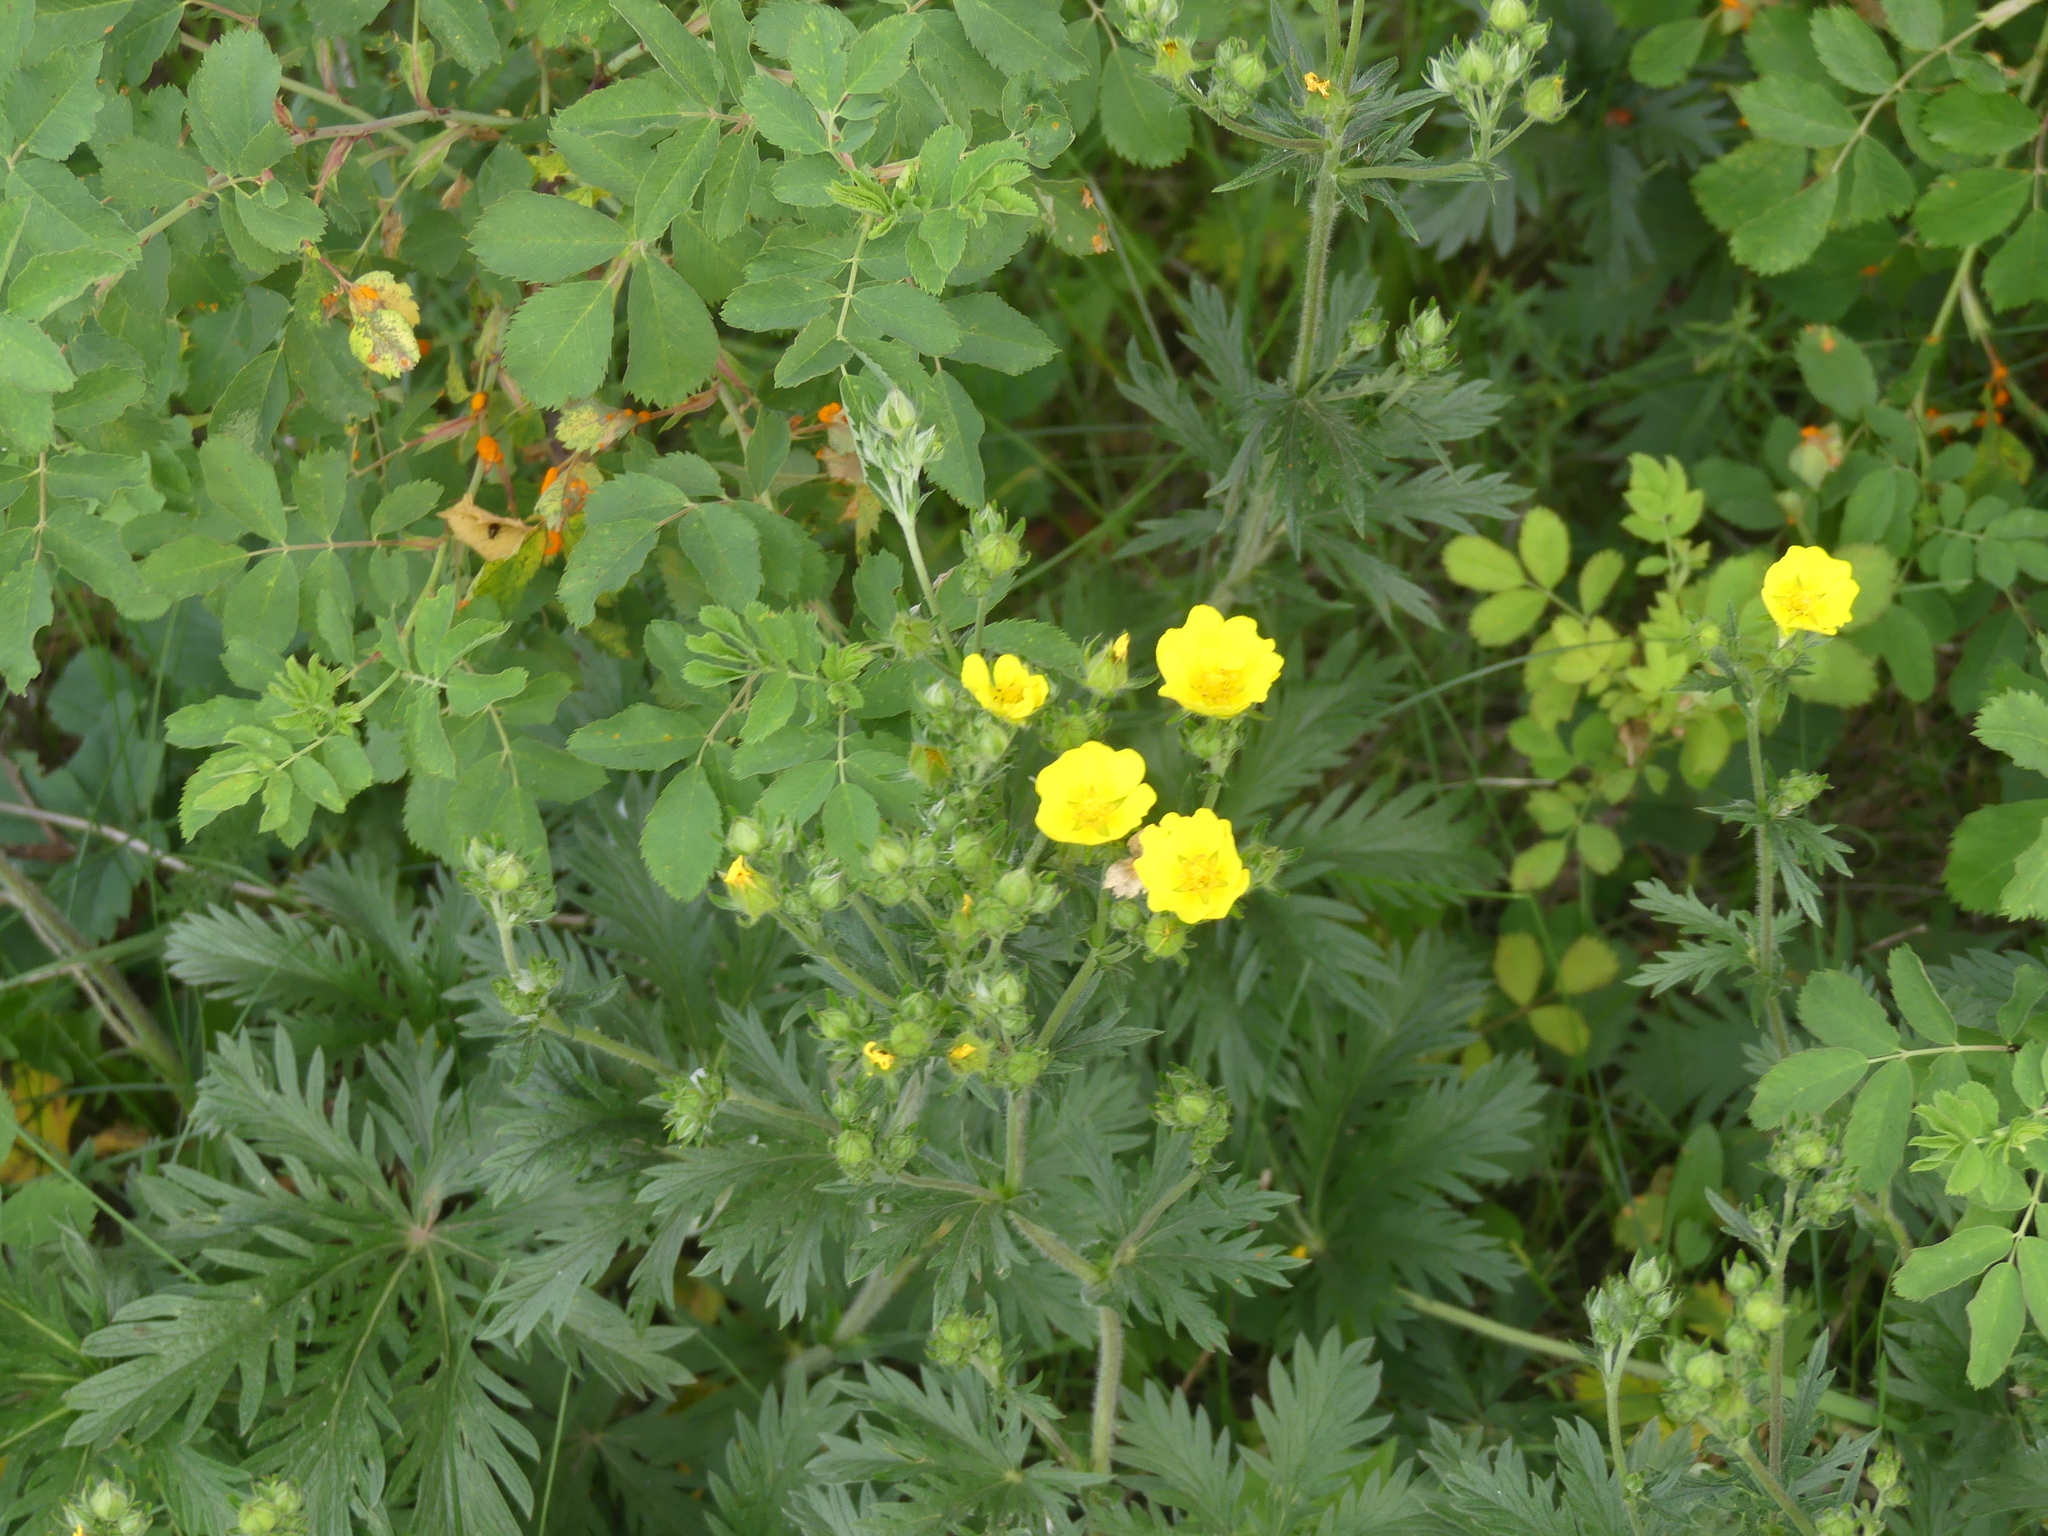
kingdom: Plantae
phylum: Tracheophyta
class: Magnoliopsida
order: Rosales
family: Rosaceae
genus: Potentilla
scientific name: Potentilla gracilis
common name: Graceful cinquefoil
